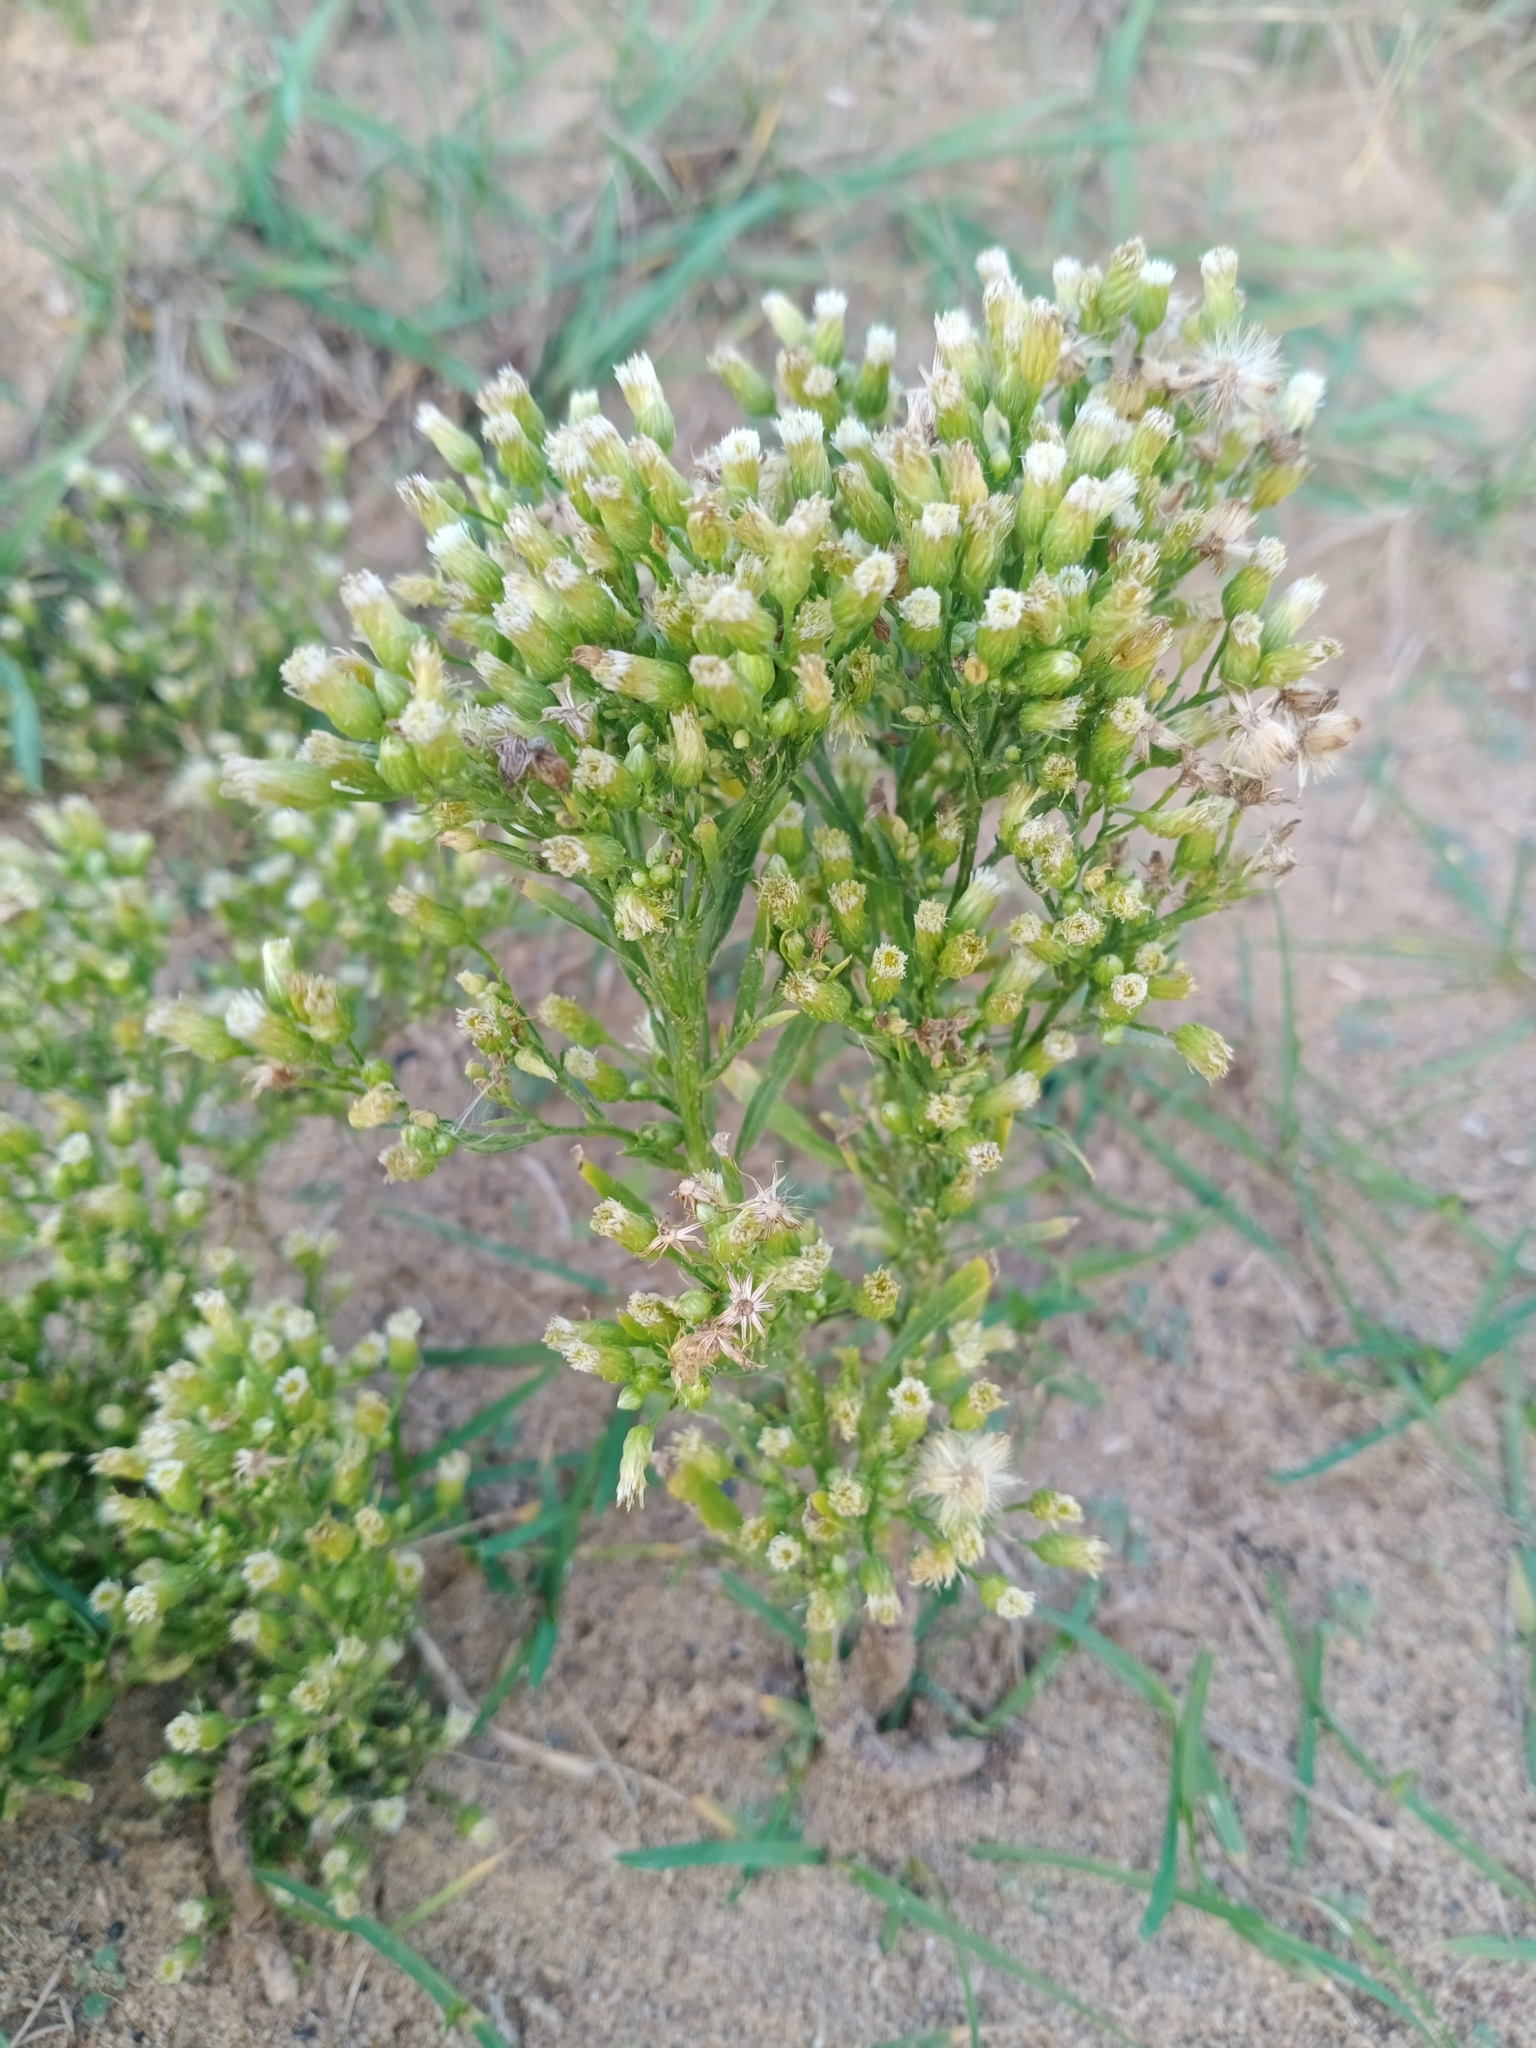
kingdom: Plantae
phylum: Tracheophyta
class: Magnoliopsida
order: Asterales
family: Asteraceae
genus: Erigeron
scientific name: Erigeron canadensis
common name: Canadian fleabane
